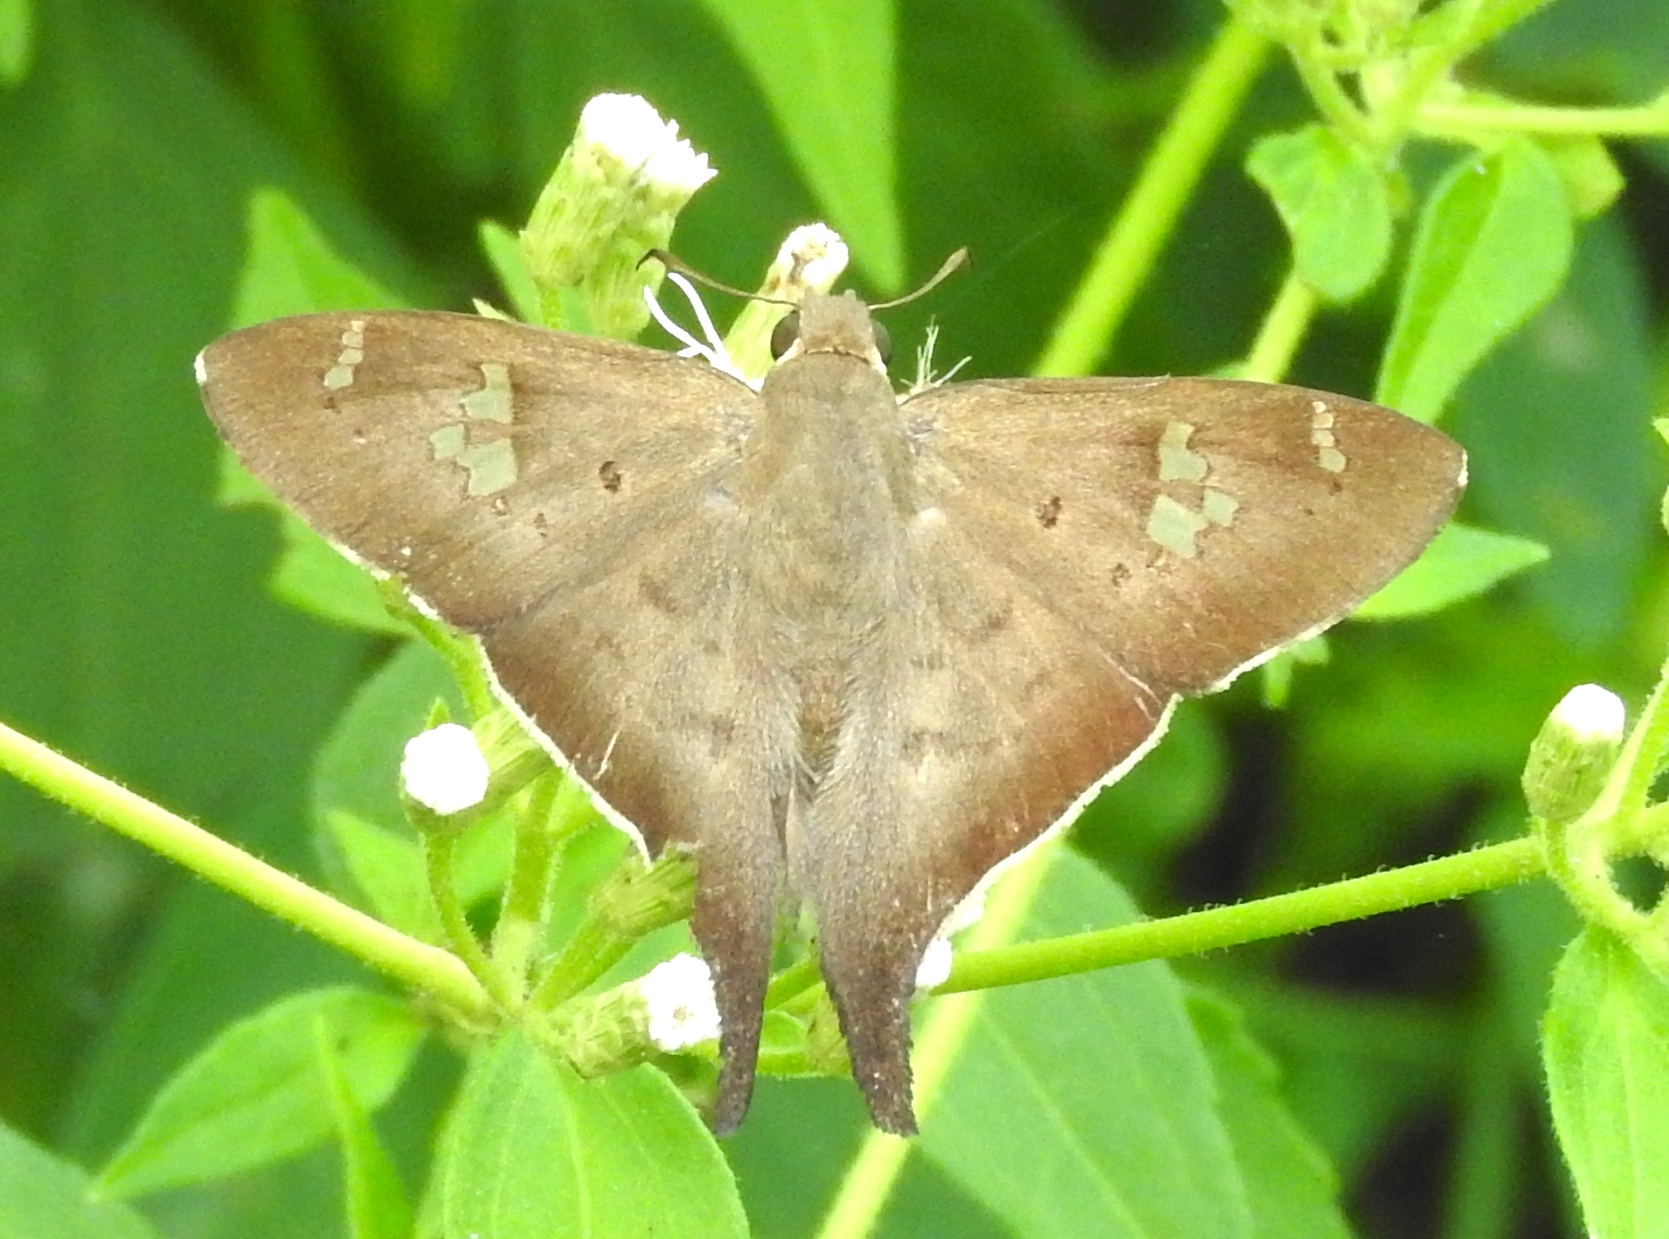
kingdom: Animalia
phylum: Arthropoda
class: Insecta
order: Lepidoptera
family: Hesperiidae
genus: Ectomis
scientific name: Ectomis
